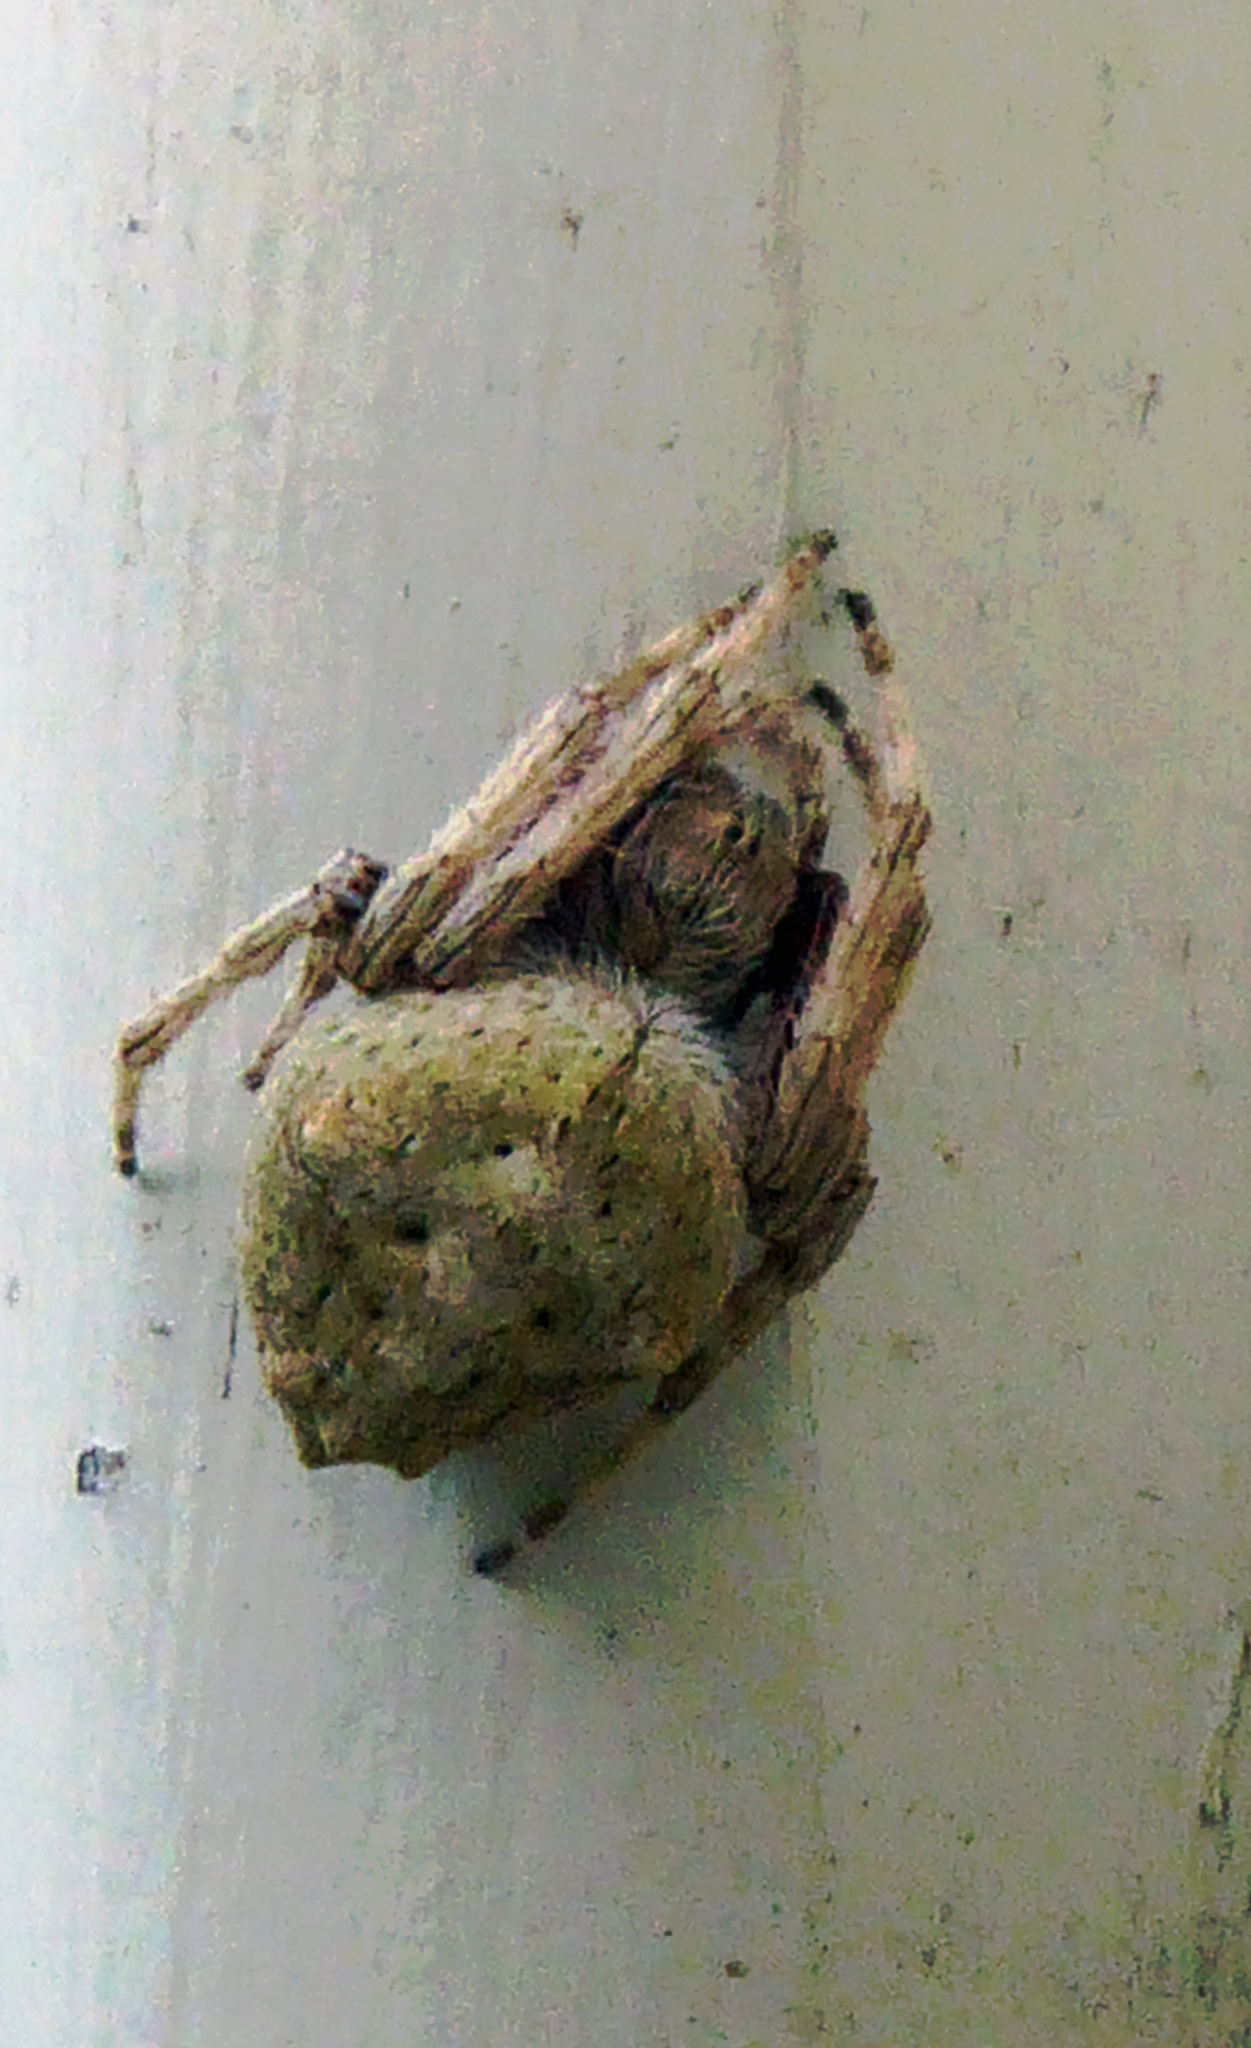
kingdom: Animalia
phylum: Arthropoda
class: Arachnida
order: Araneae
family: Araneidae
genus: Eriophora
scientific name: Eriophora pustulosa
